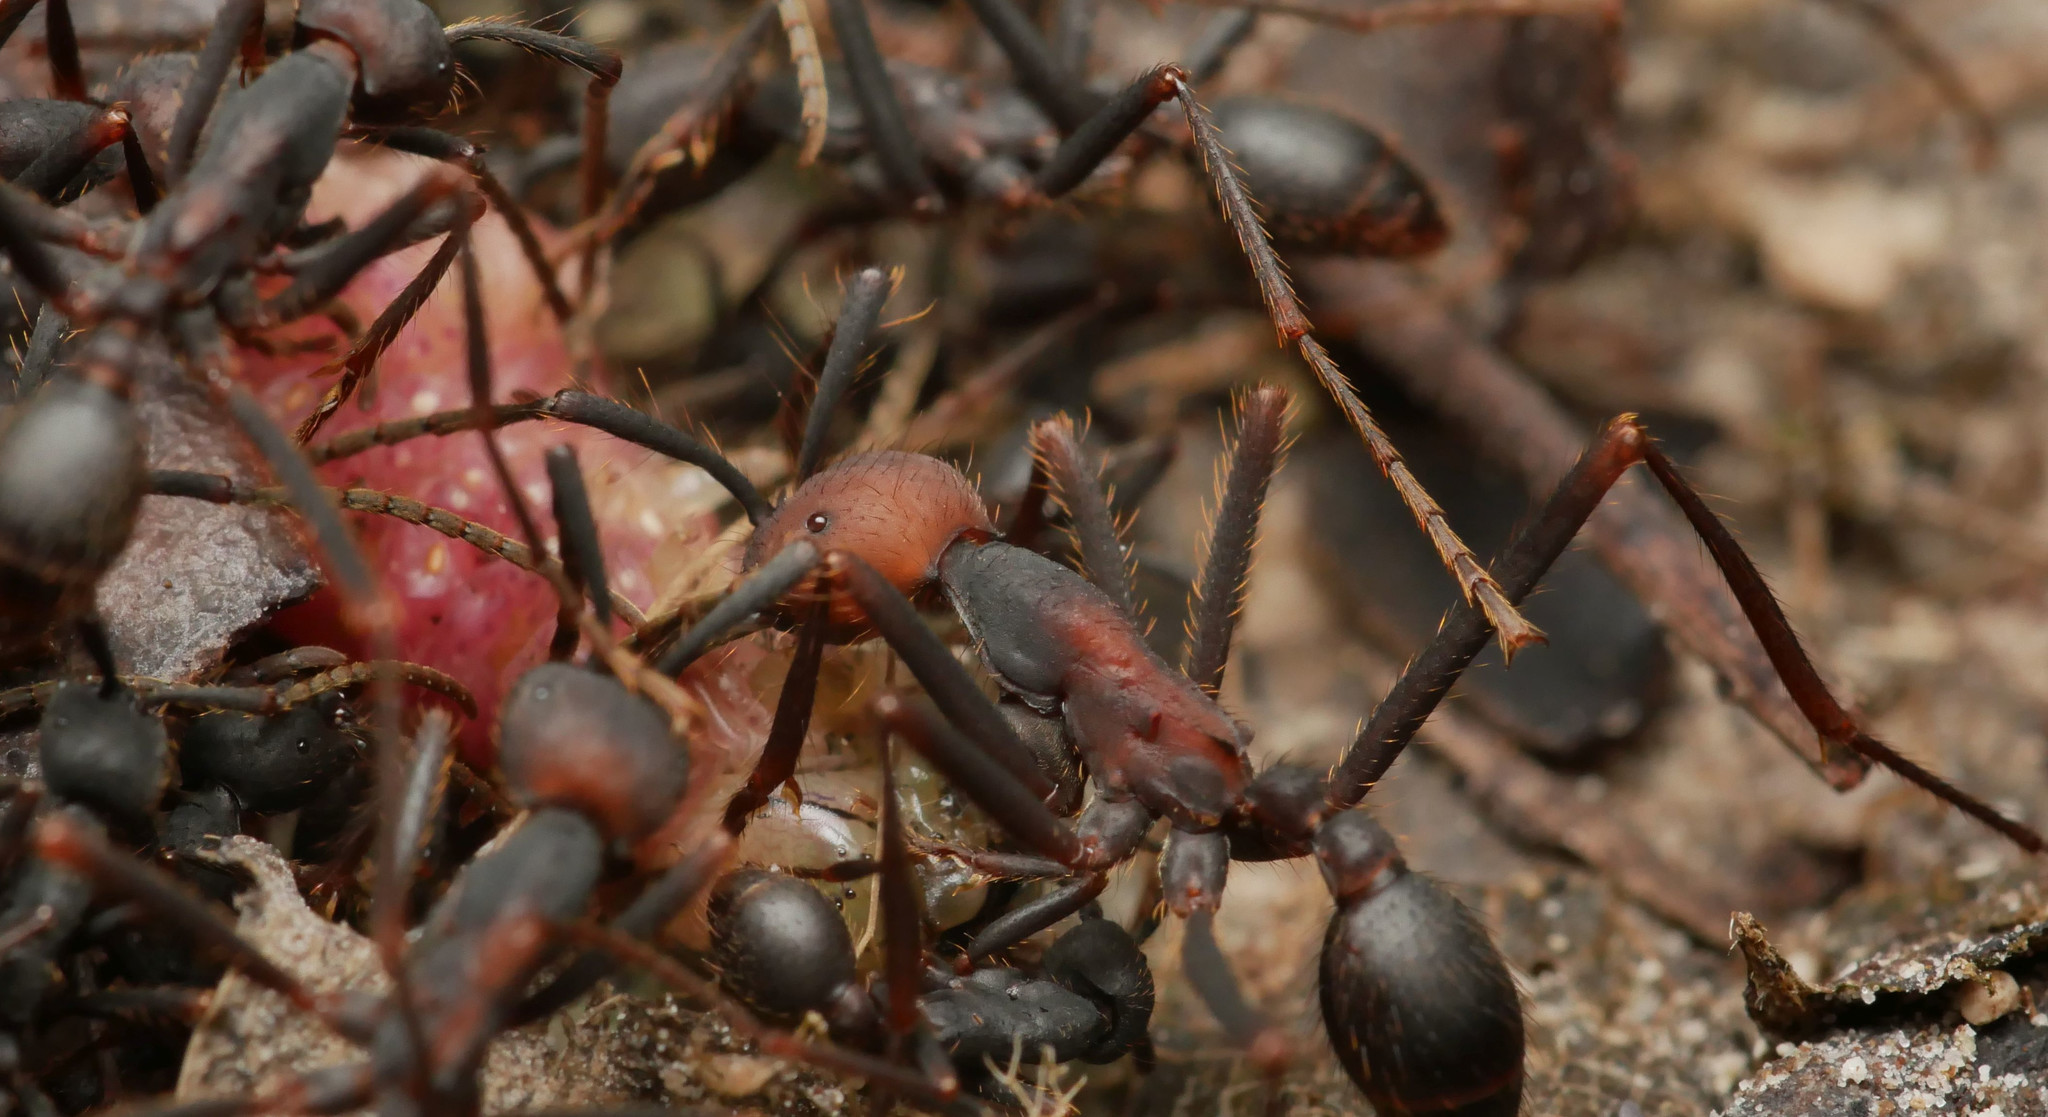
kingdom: Animalia
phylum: Arthropoda
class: Insecta
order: Hymenoptera
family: Formicidae
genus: Eciton
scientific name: Eciton burchellii
